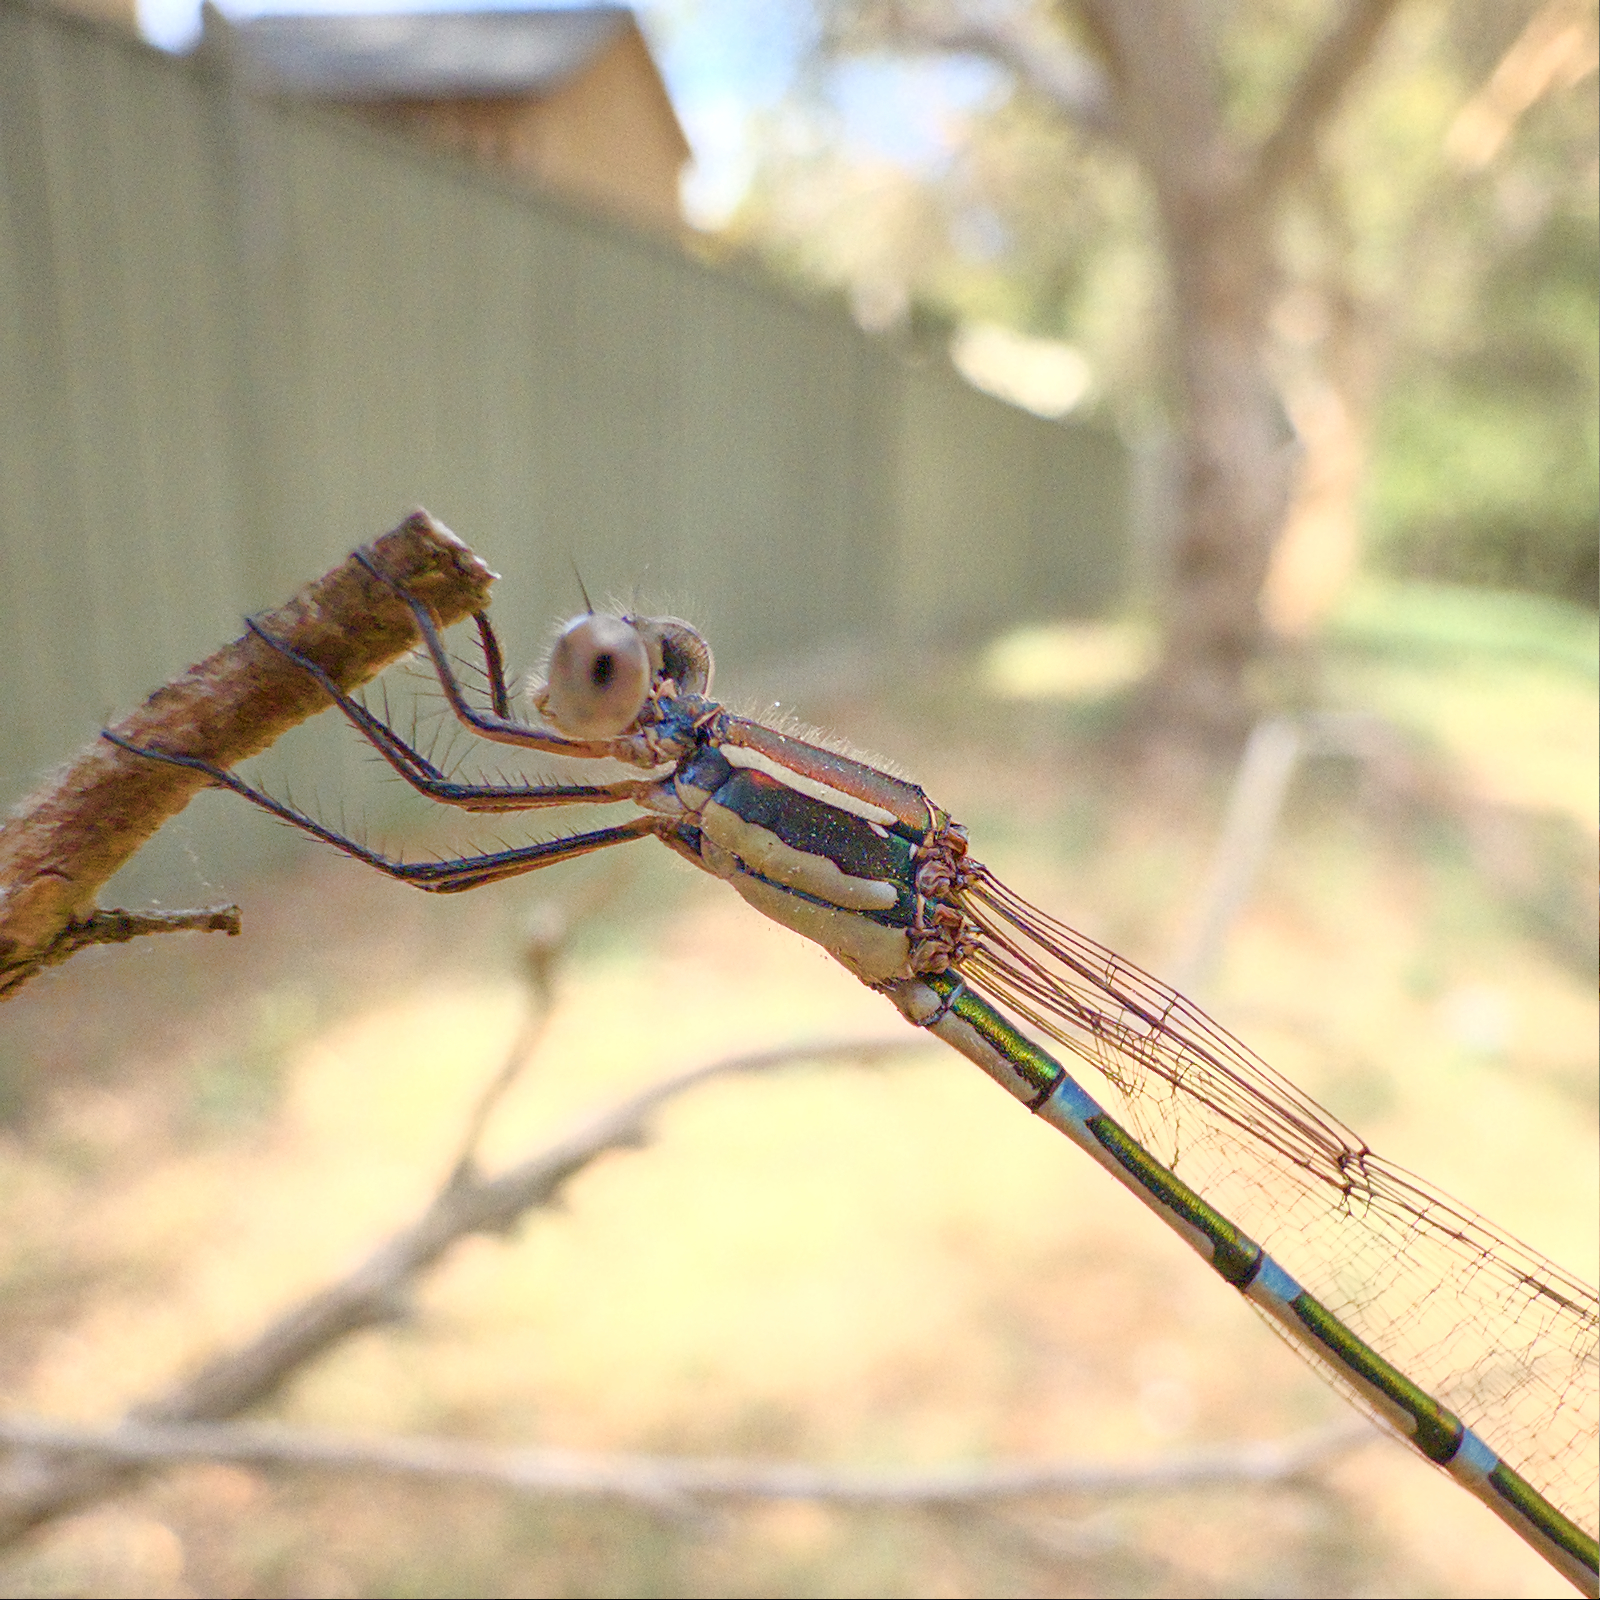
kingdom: Animalia
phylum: Arthropoda
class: Insecta
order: Odonata
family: Lestidae
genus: Austrolestes
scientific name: Austrolestes leda
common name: Wandering ringtail
